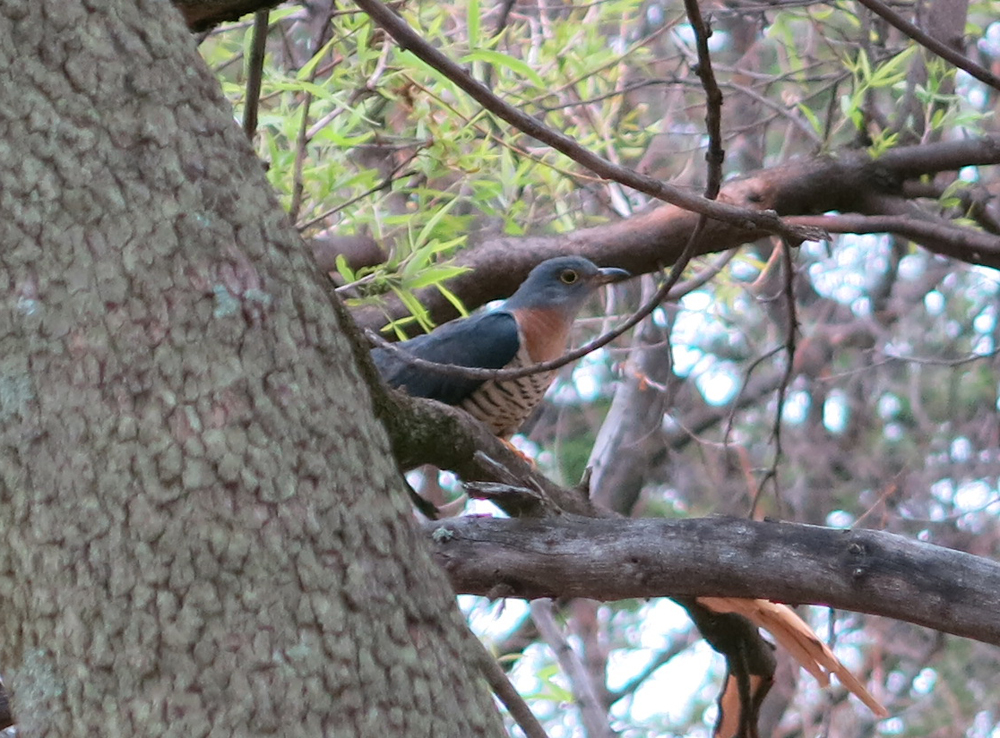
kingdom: Animalia
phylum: Chordata
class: Aves
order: Cuculiformes
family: Cuculidae
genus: Cuculus
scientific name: Cuculus solitarius
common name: Red-chested cuckoo
